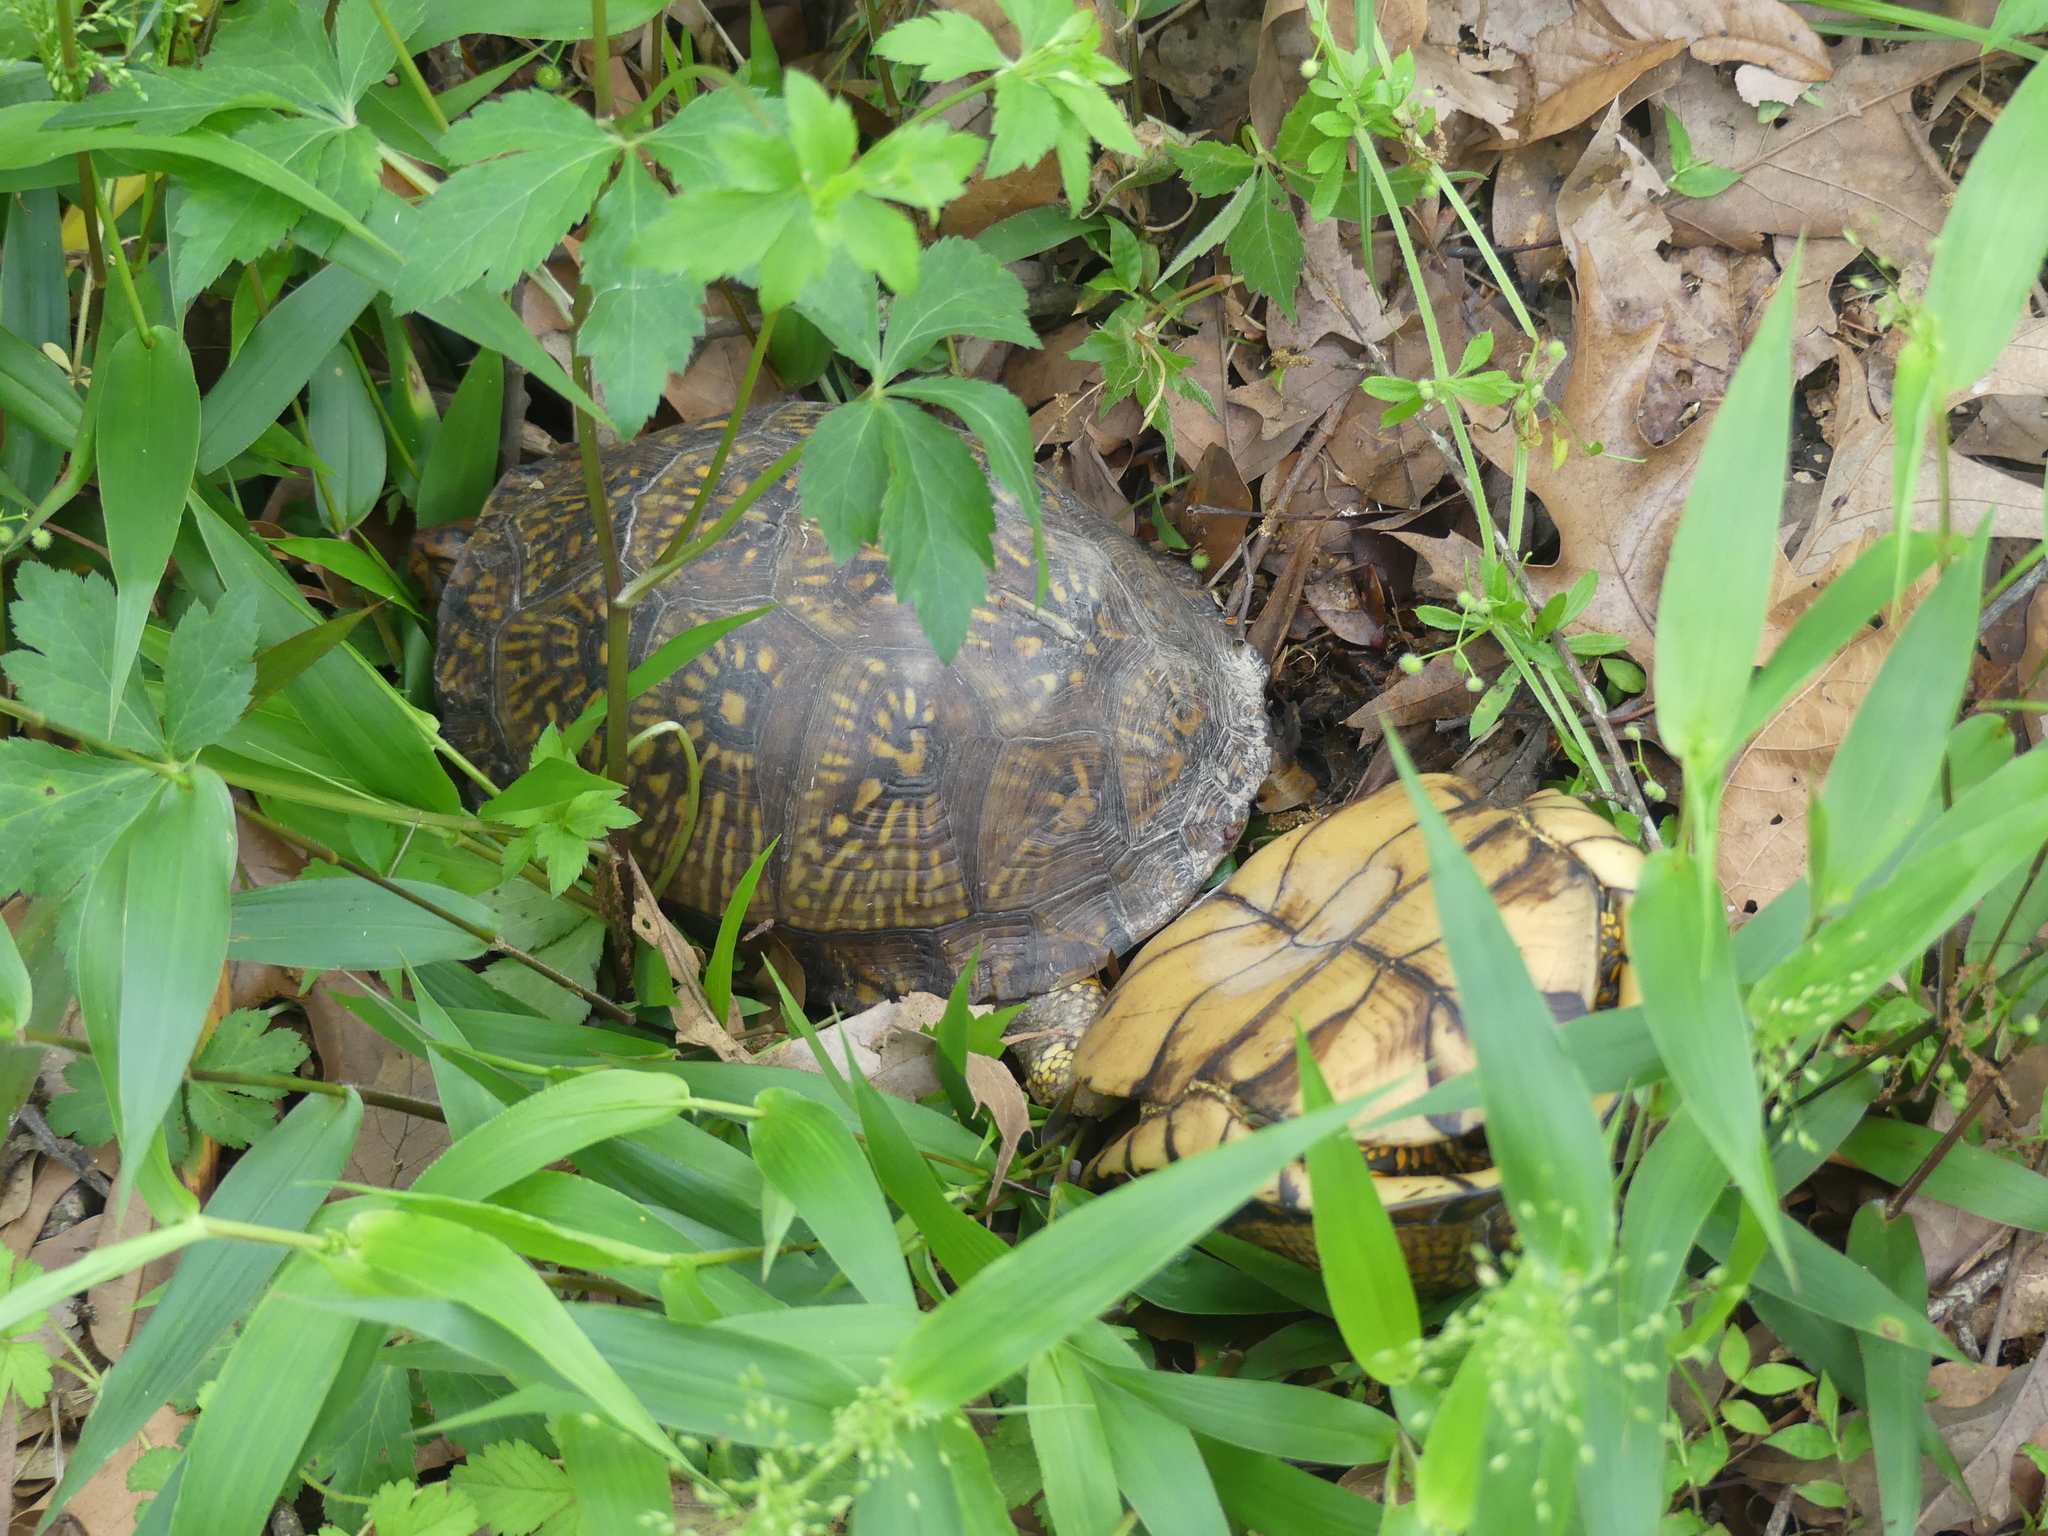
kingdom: Animalia
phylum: Chordata
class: Testudines
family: Emydidae
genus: Terrapene
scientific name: Terrapene carolina
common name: Common box turtle
